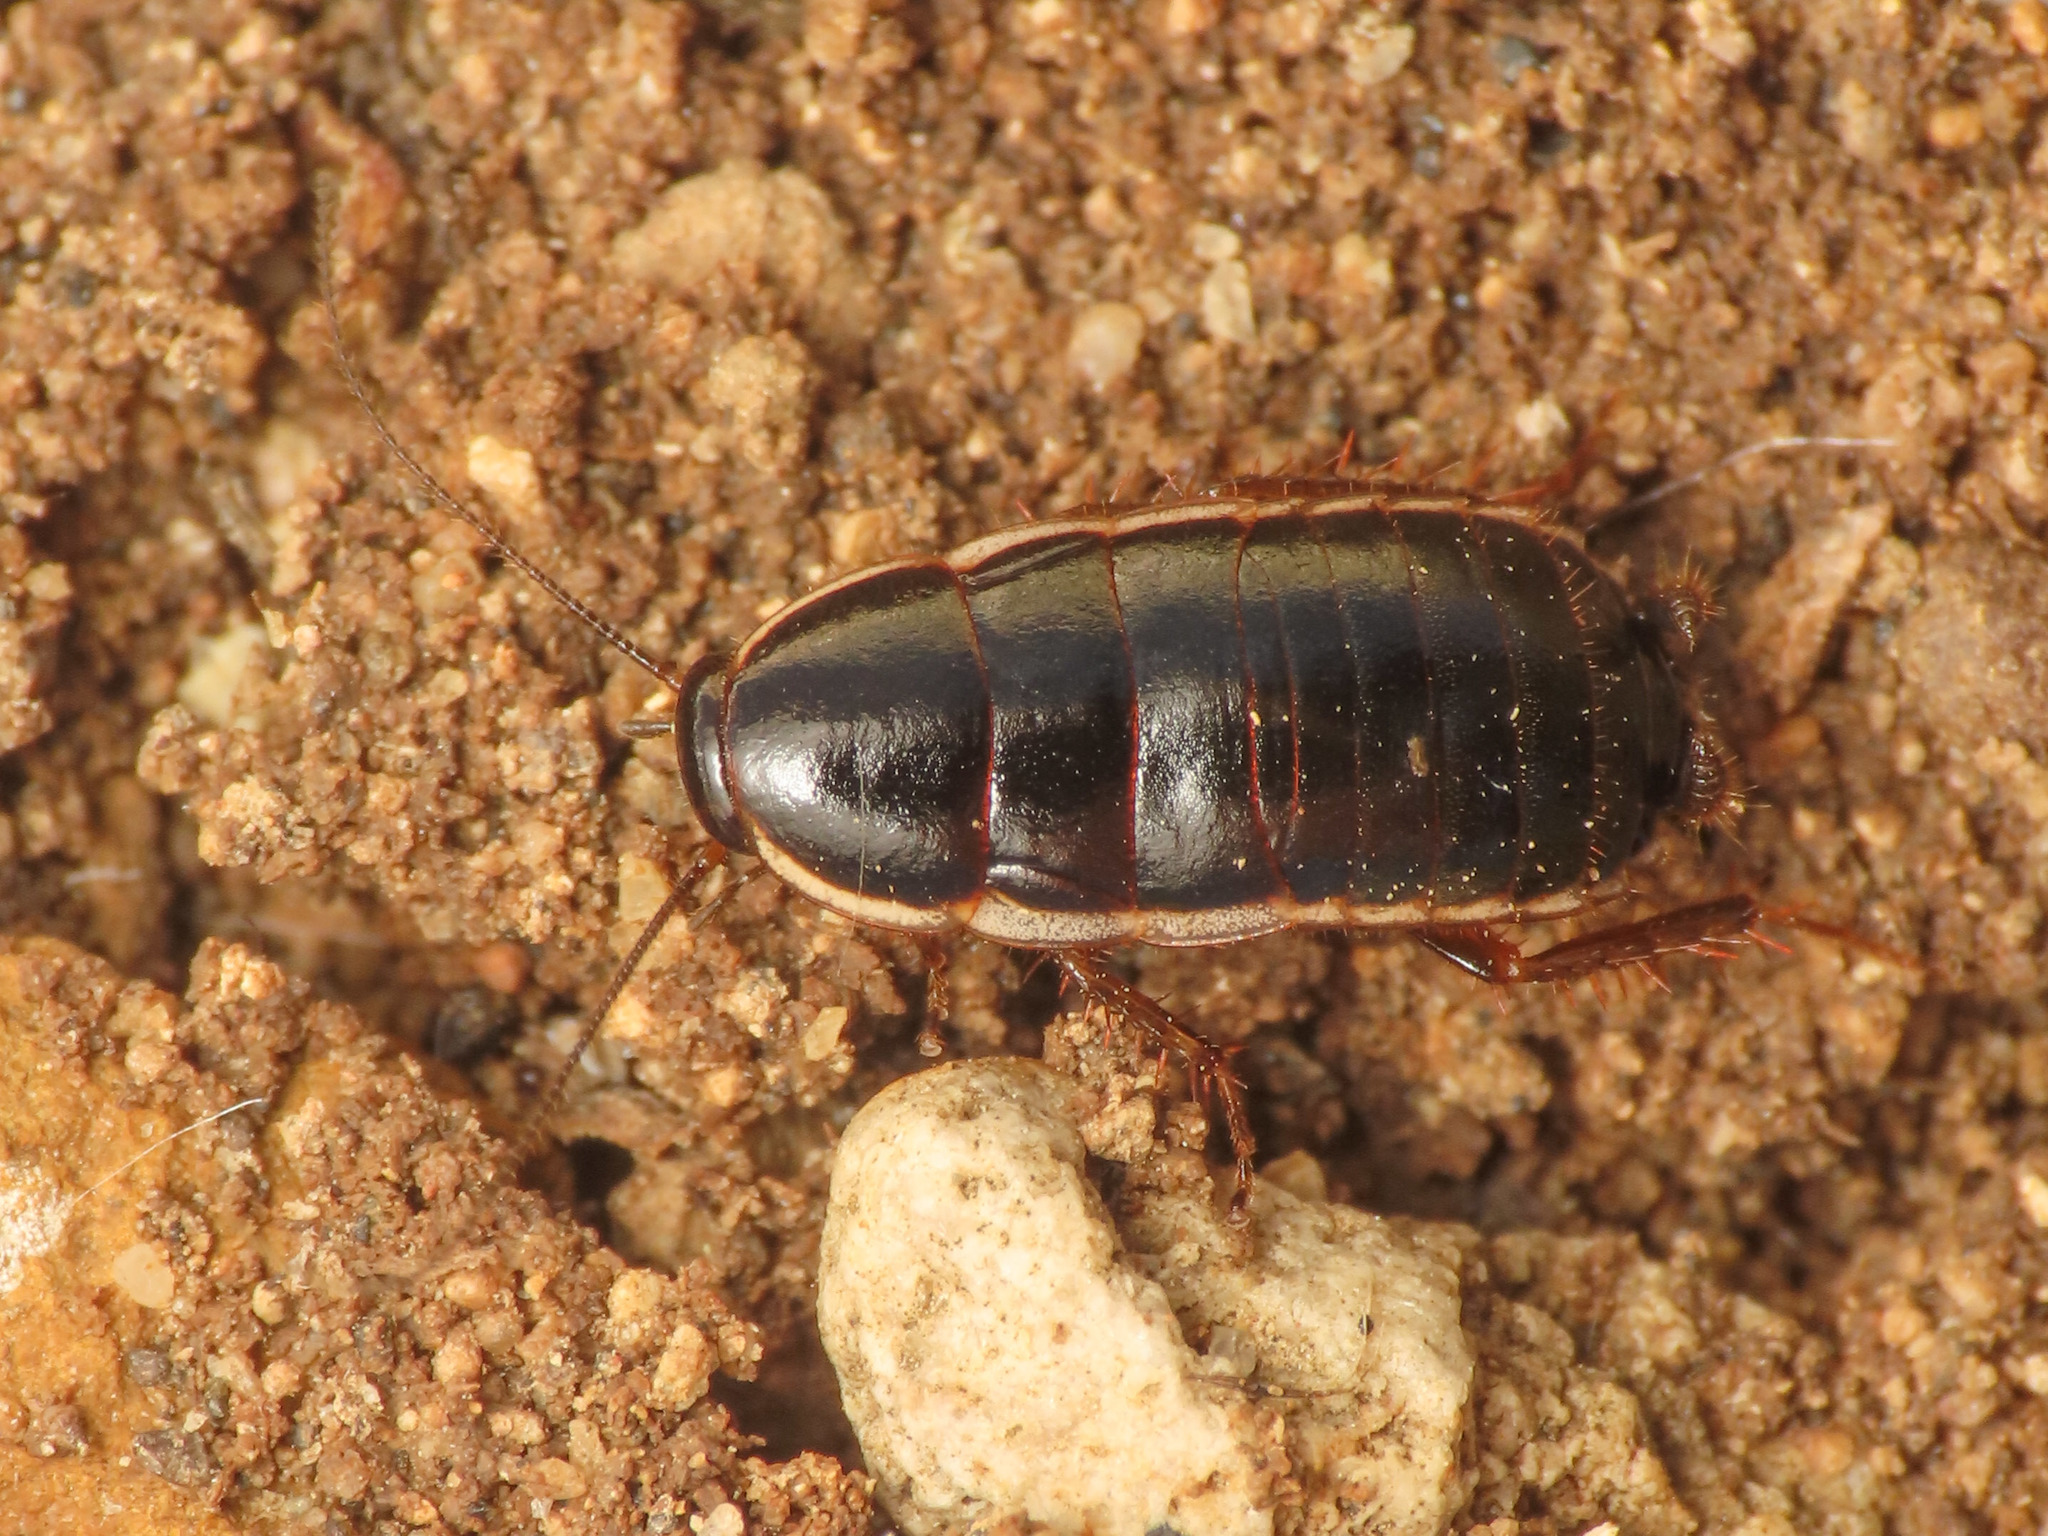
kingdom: Animalia
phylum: Arthropoda
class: Insecta
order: Blattodea
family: Ectobiidae
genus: Loboptera
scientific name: Loboptera decipiens
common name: Lobe-winged cockroach
